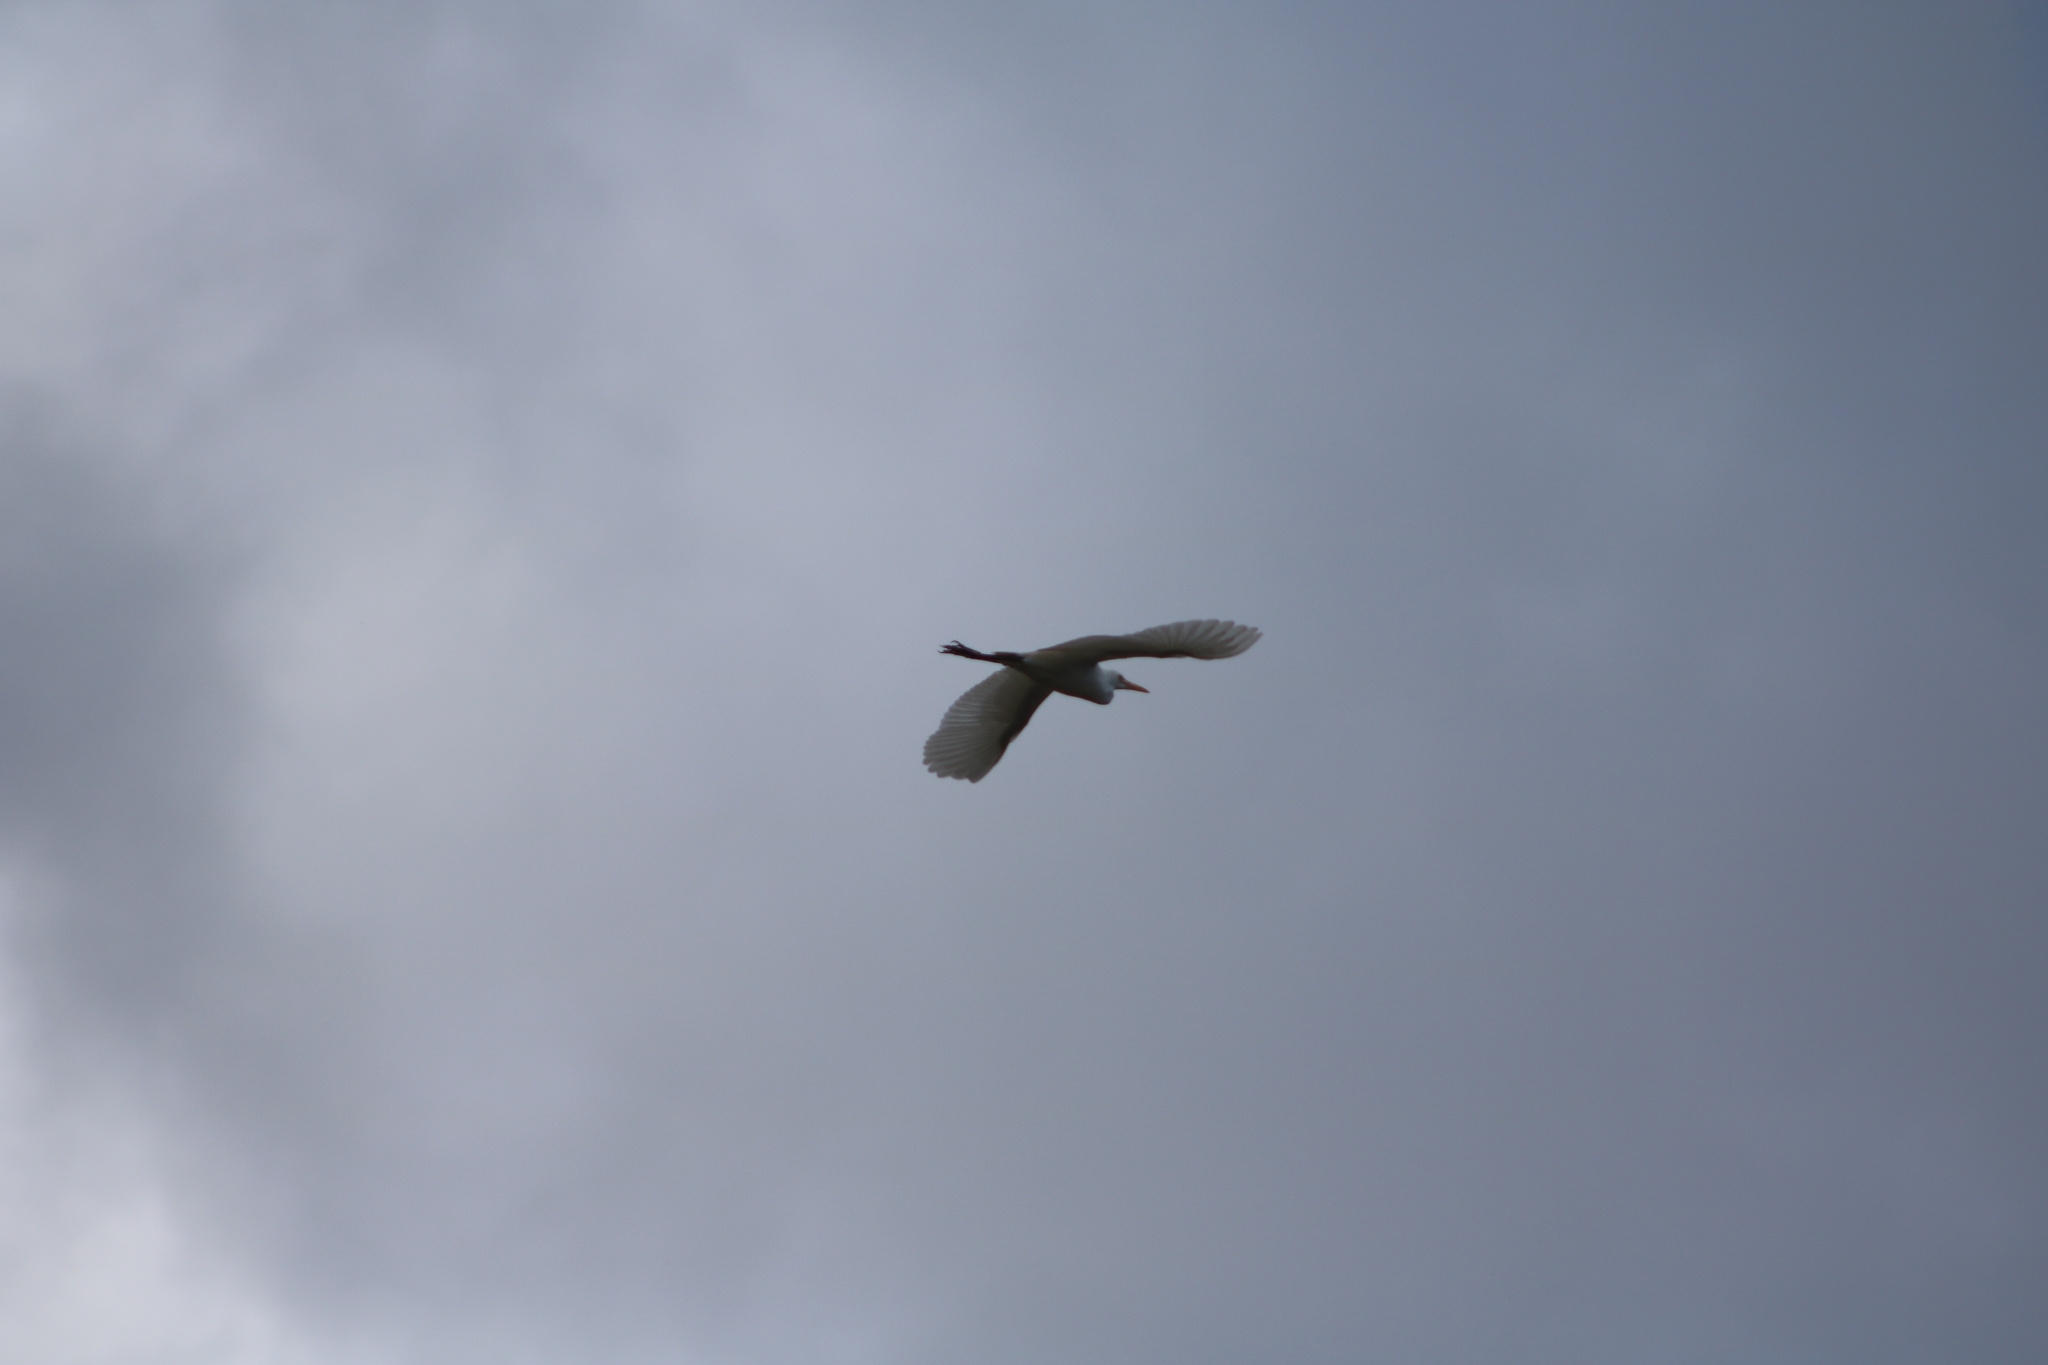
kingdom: Animalia
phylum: Chordata
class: Aves
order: Pelecaniformes
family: Ardeidae
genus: Bubulcus
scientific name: Bubulcus coromandus
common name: Eastern cattle egret
